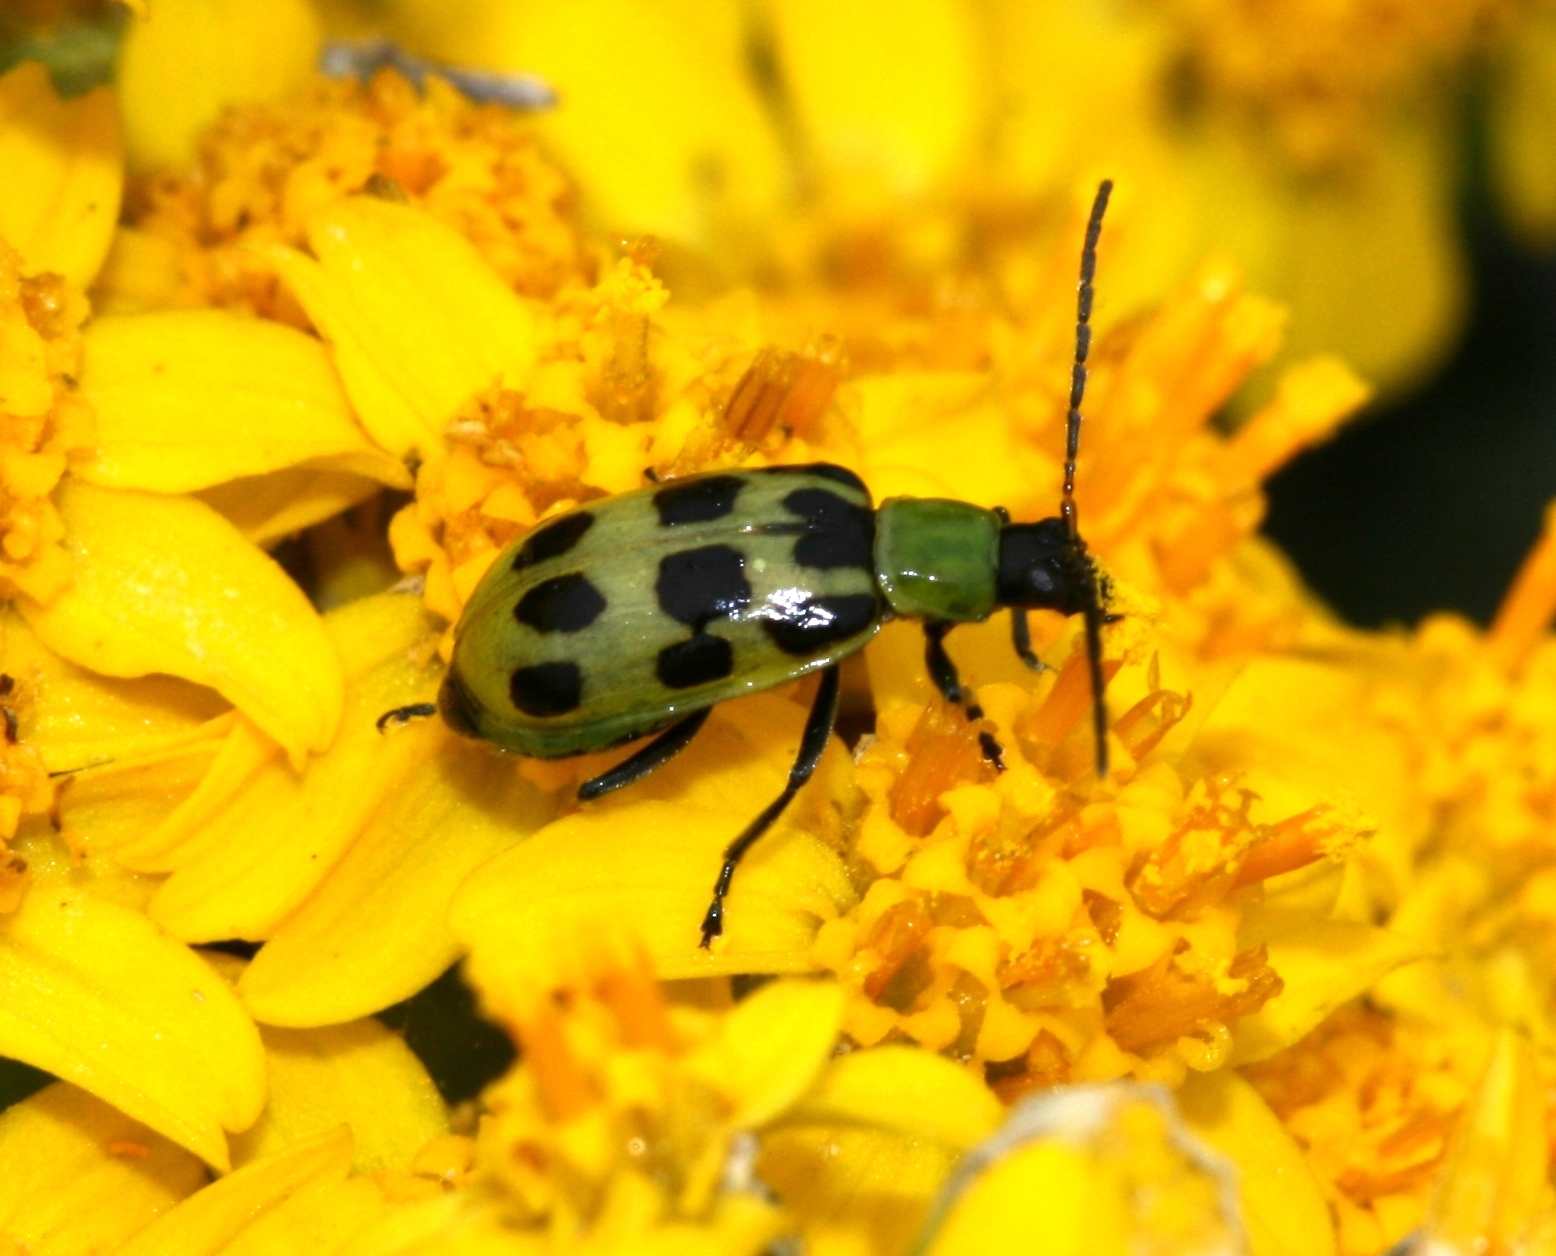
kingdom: Animalia
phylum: Arthropoda
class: Insecta
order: Coleoptera
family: Chrysomelidae
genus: Diabrotica
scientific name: Diabrotica undecimpunctata
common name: Spotted cucumber beetle
